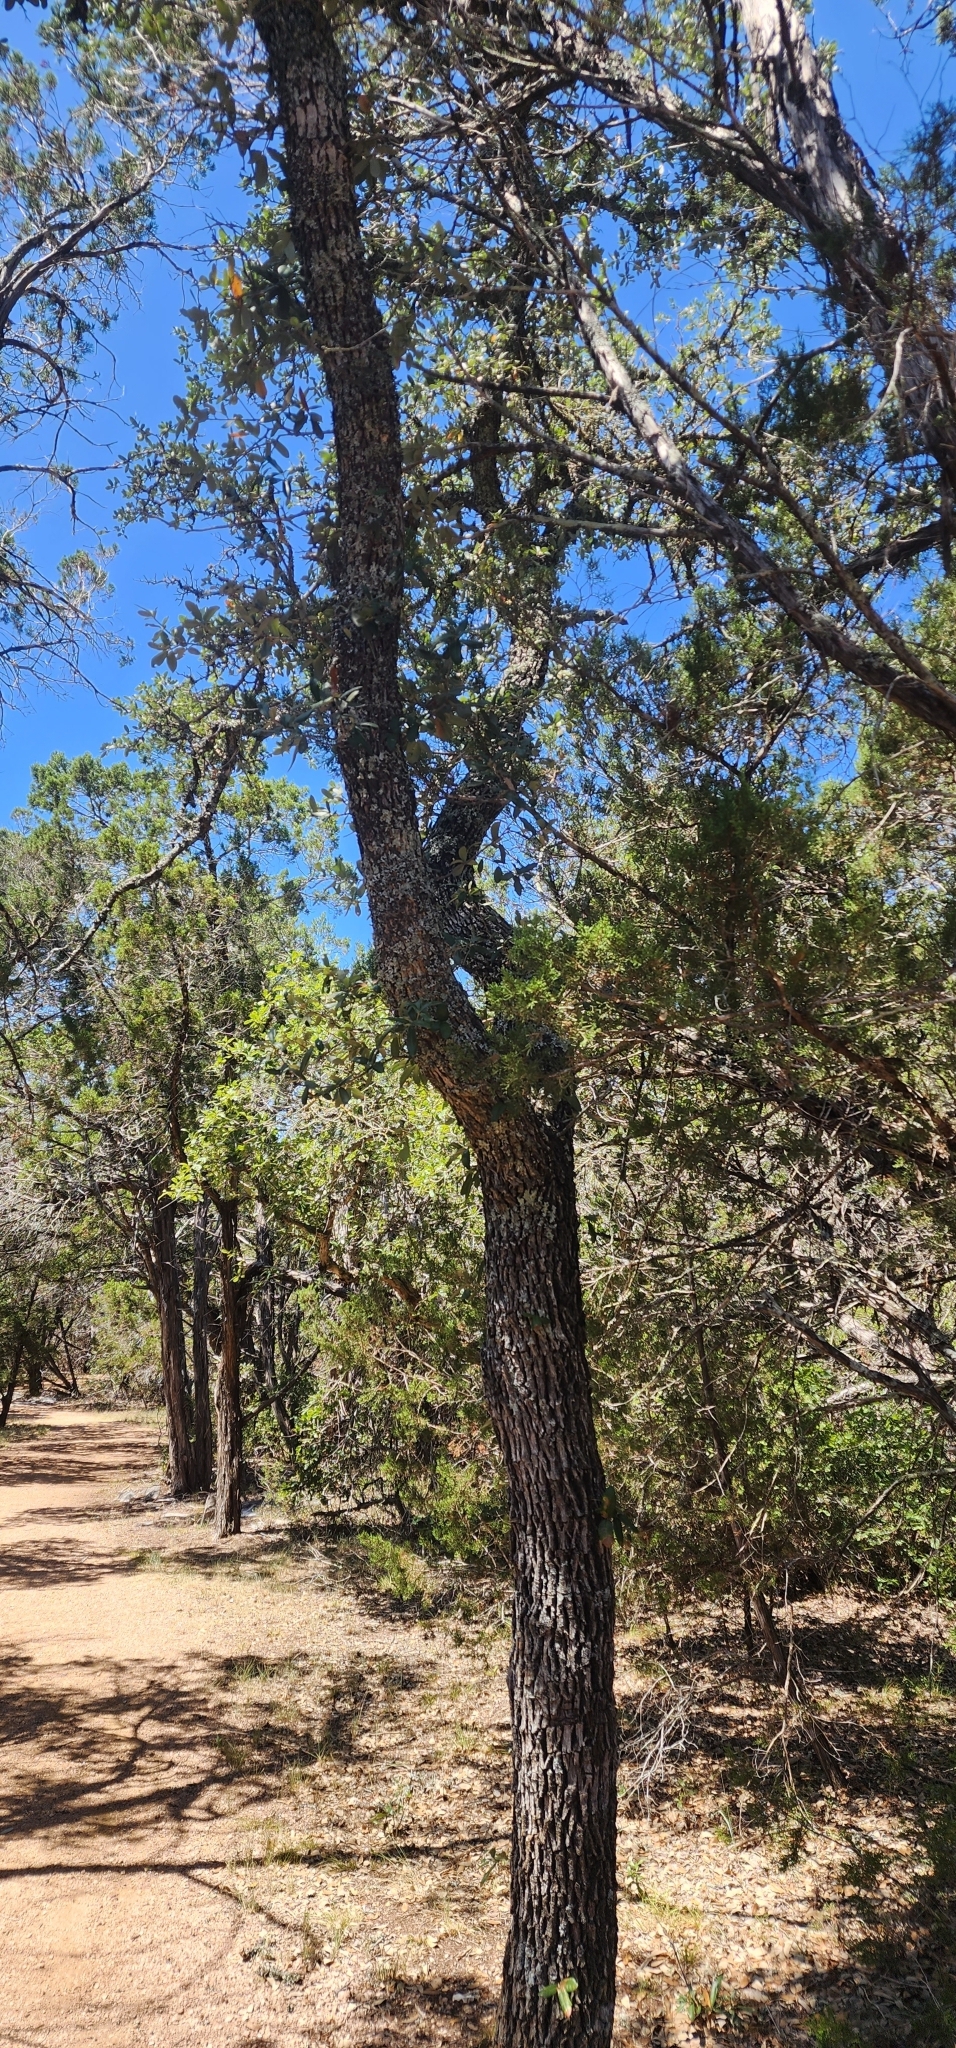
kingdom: Plantae
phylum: Tracheophyta
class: Magnoliopsida
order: Fagales
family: Fagaceae
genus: Quercus
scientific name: Quercus fusiformis
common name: Texas live oak
